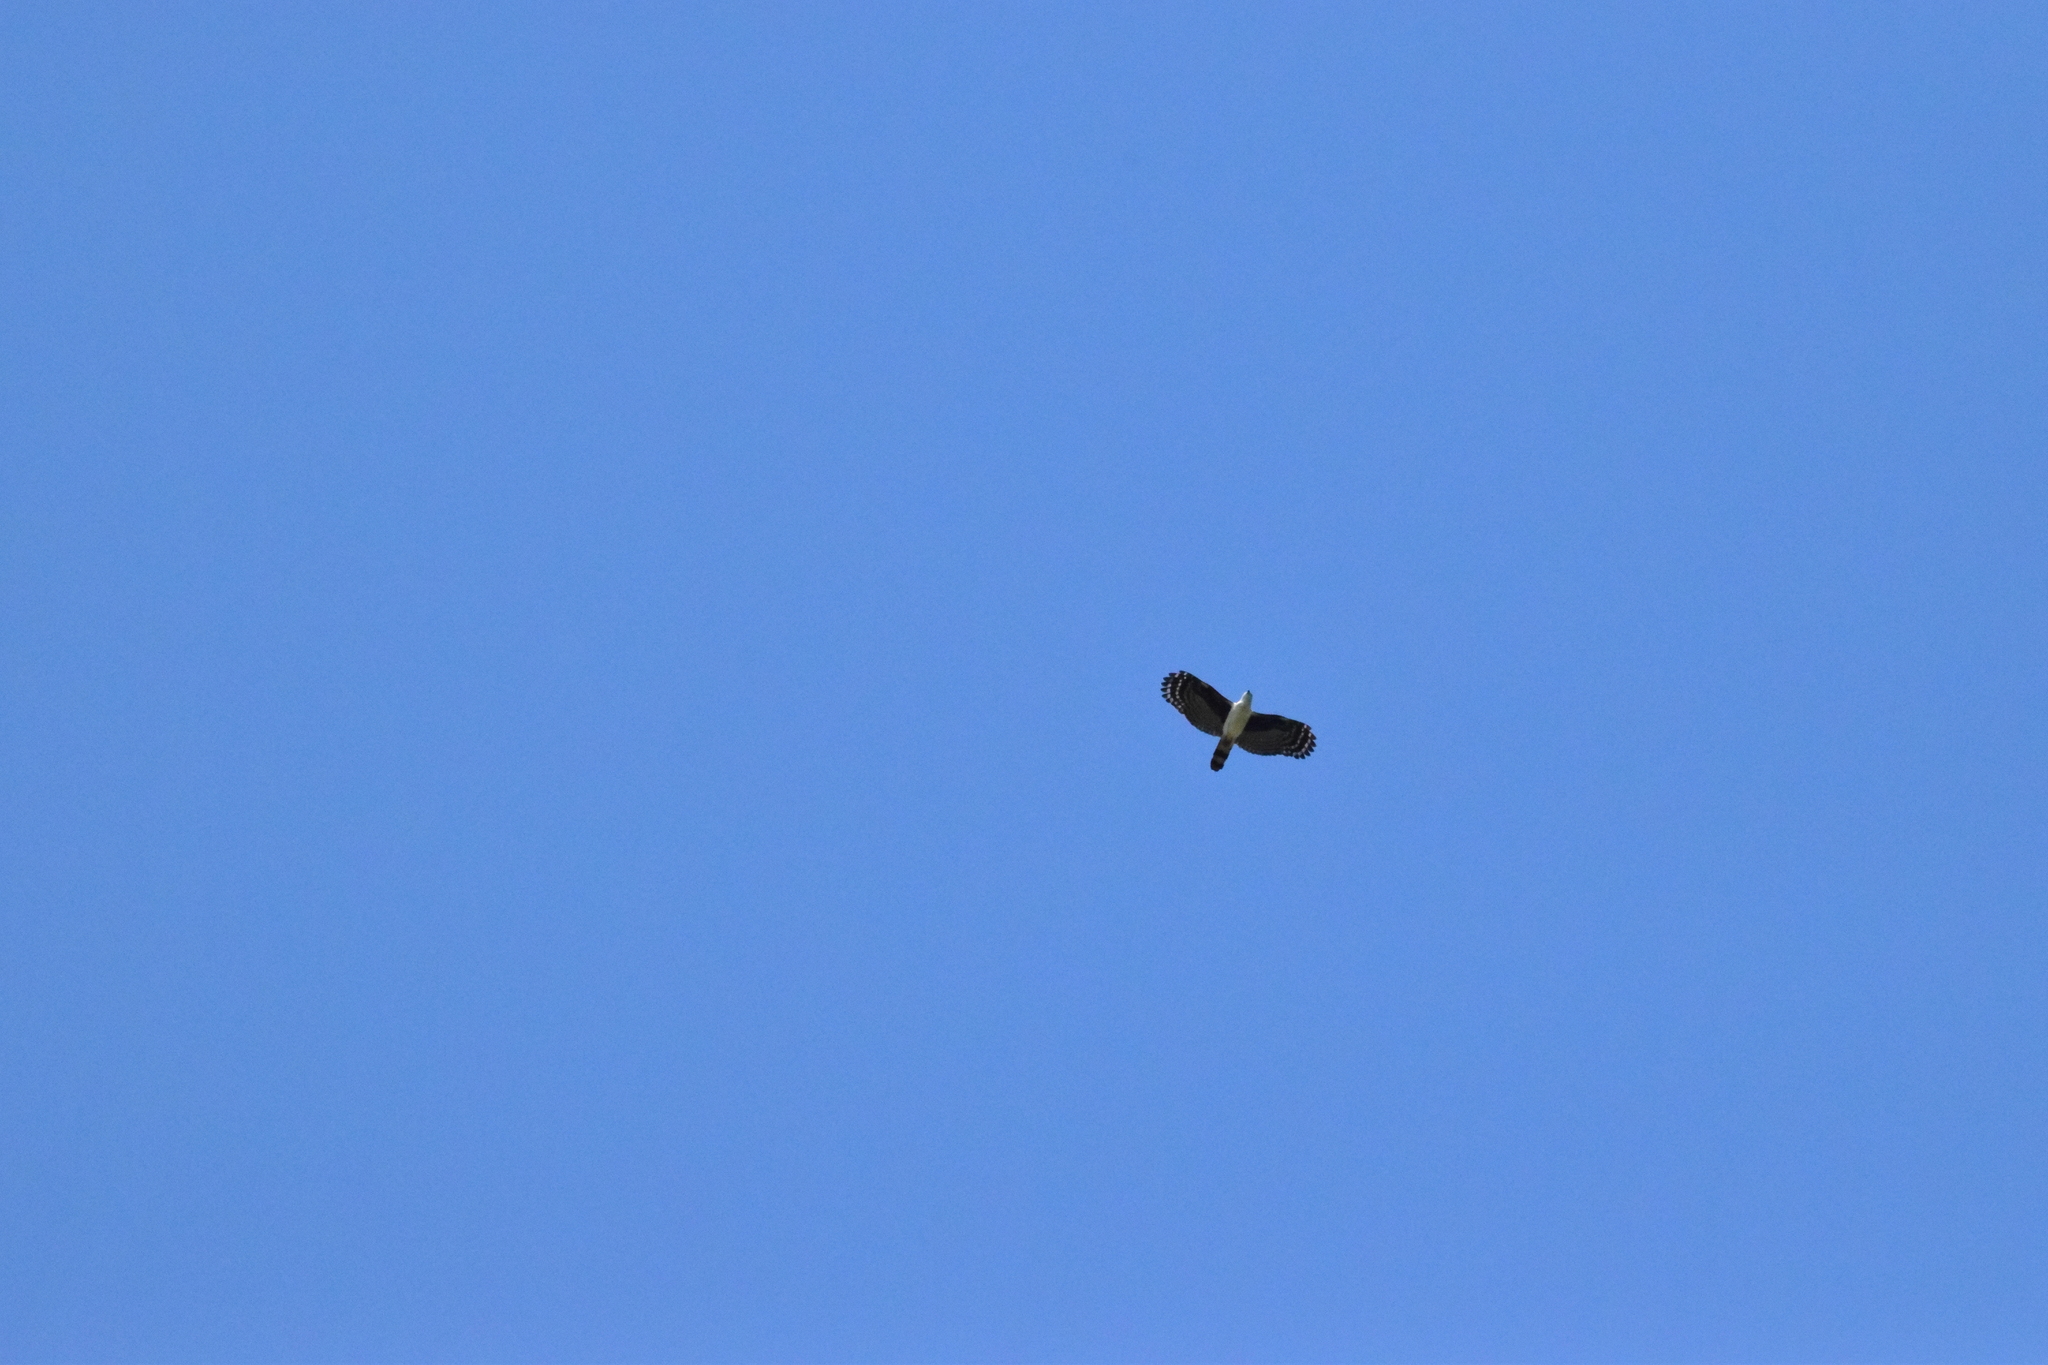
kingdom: Animalia
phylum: Chordata
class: Aves
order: Accipitriformes
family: Accipitridae
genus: Leptodon
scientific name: Leptodon cayanensis
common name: Gray-headed kite
